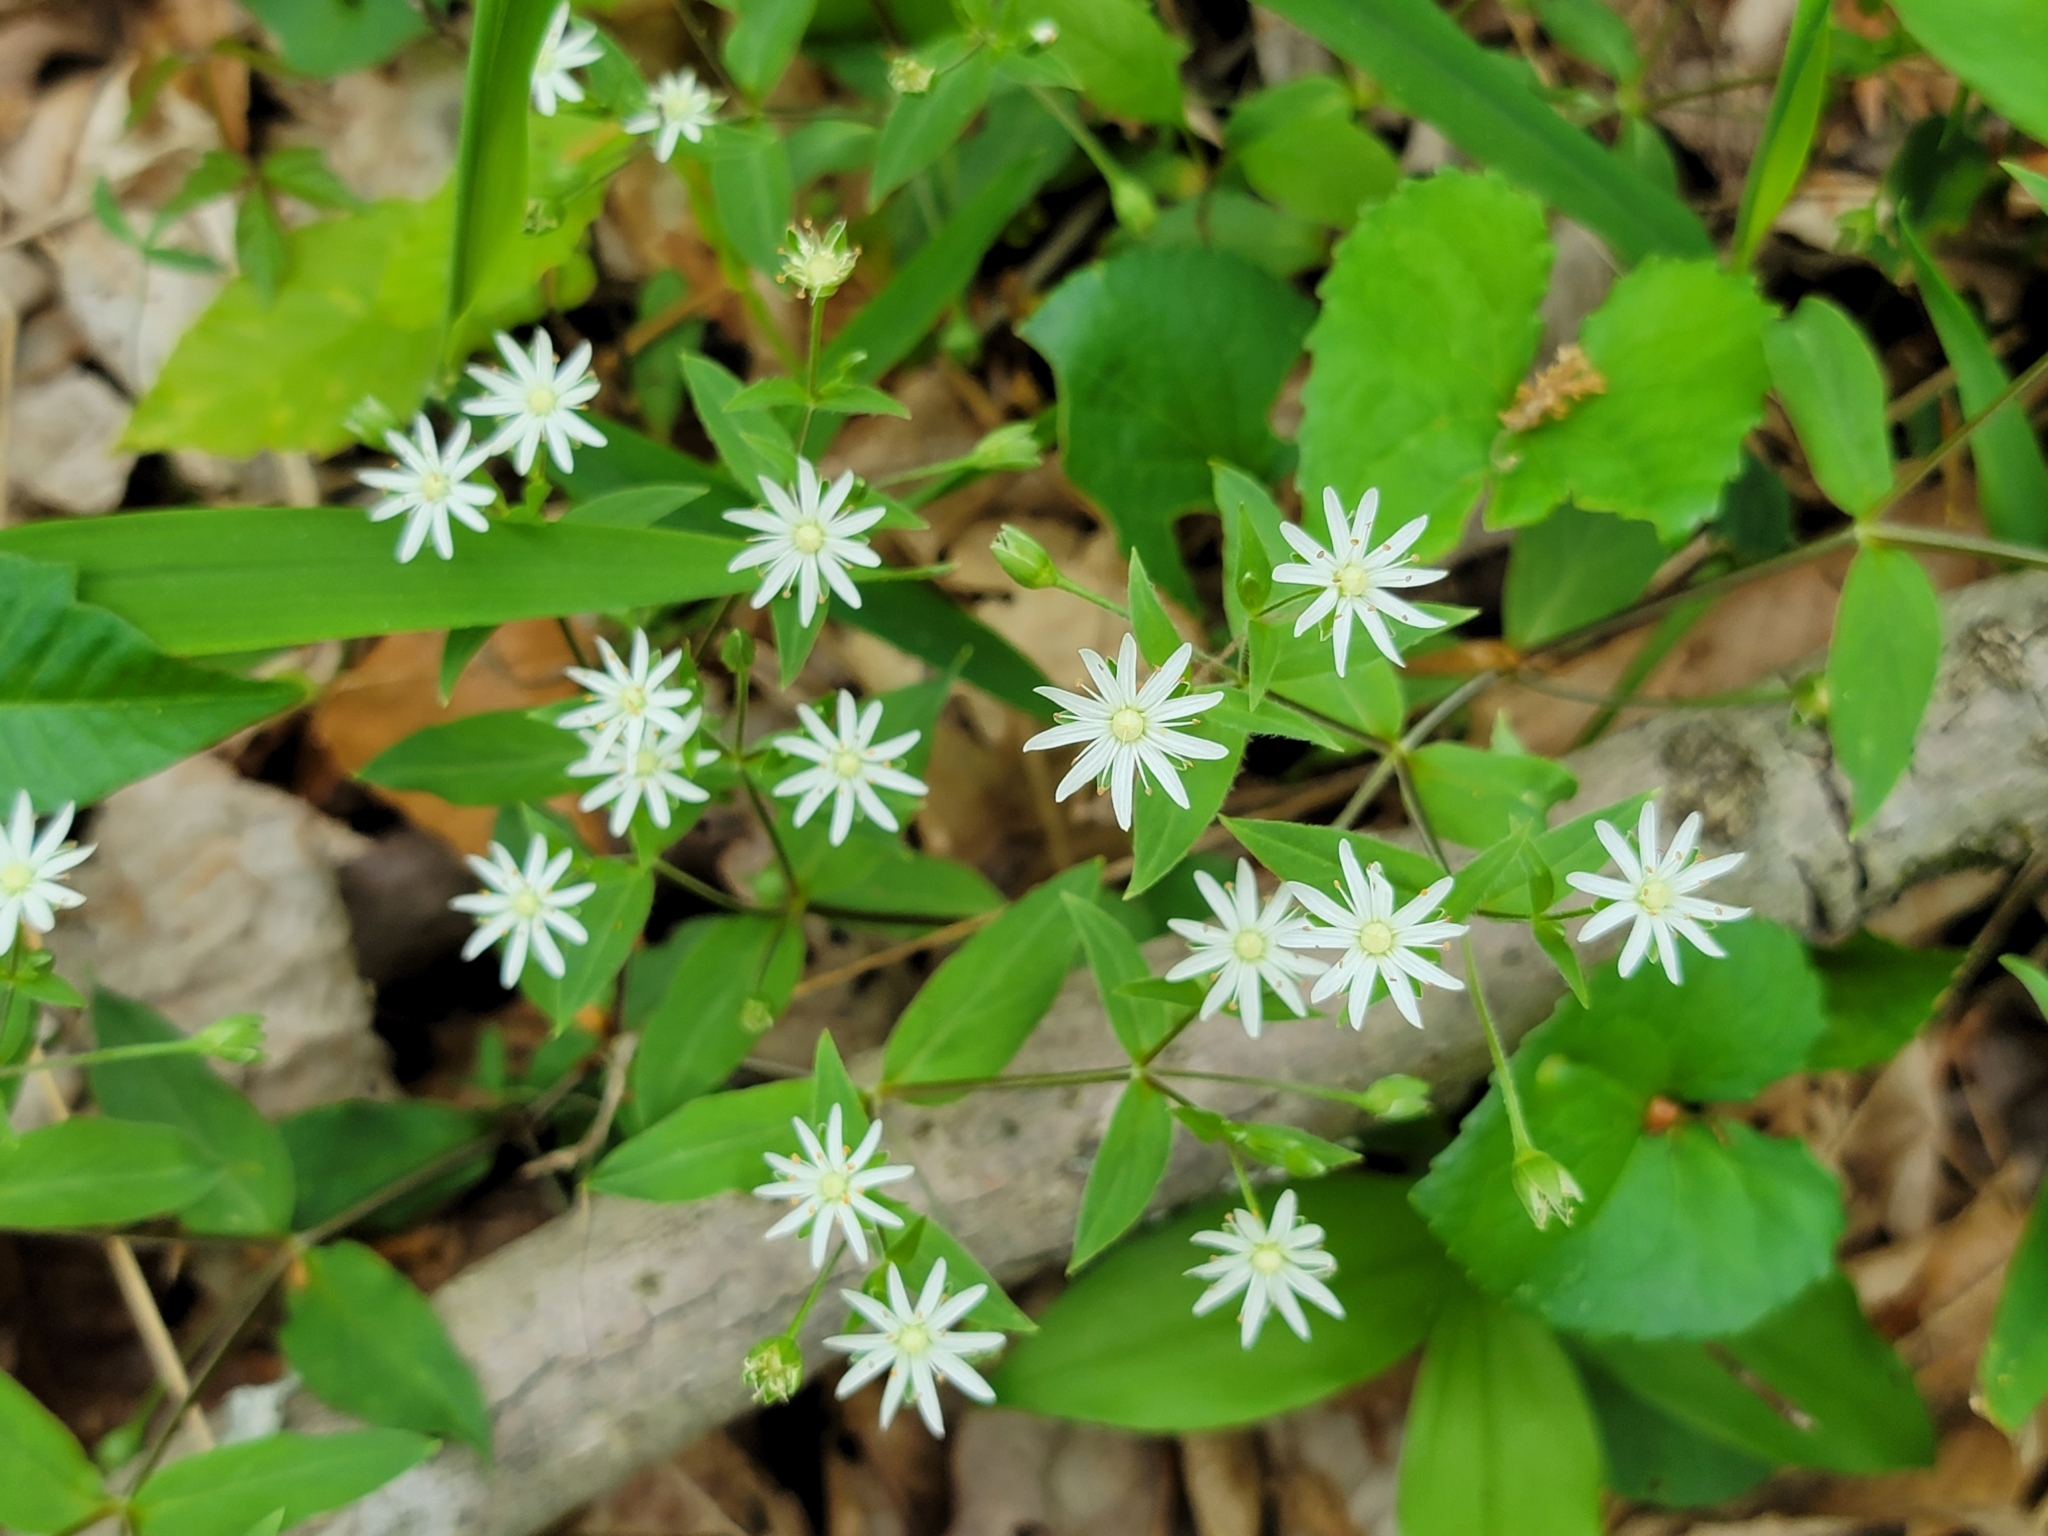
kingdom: Plantae
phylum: Tracheophyta
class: Magnoliopsida
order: Caryophyllales
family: Caryophyllaceae
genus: Stellaria
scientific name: Stellaria pubera
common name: Star chickweed
